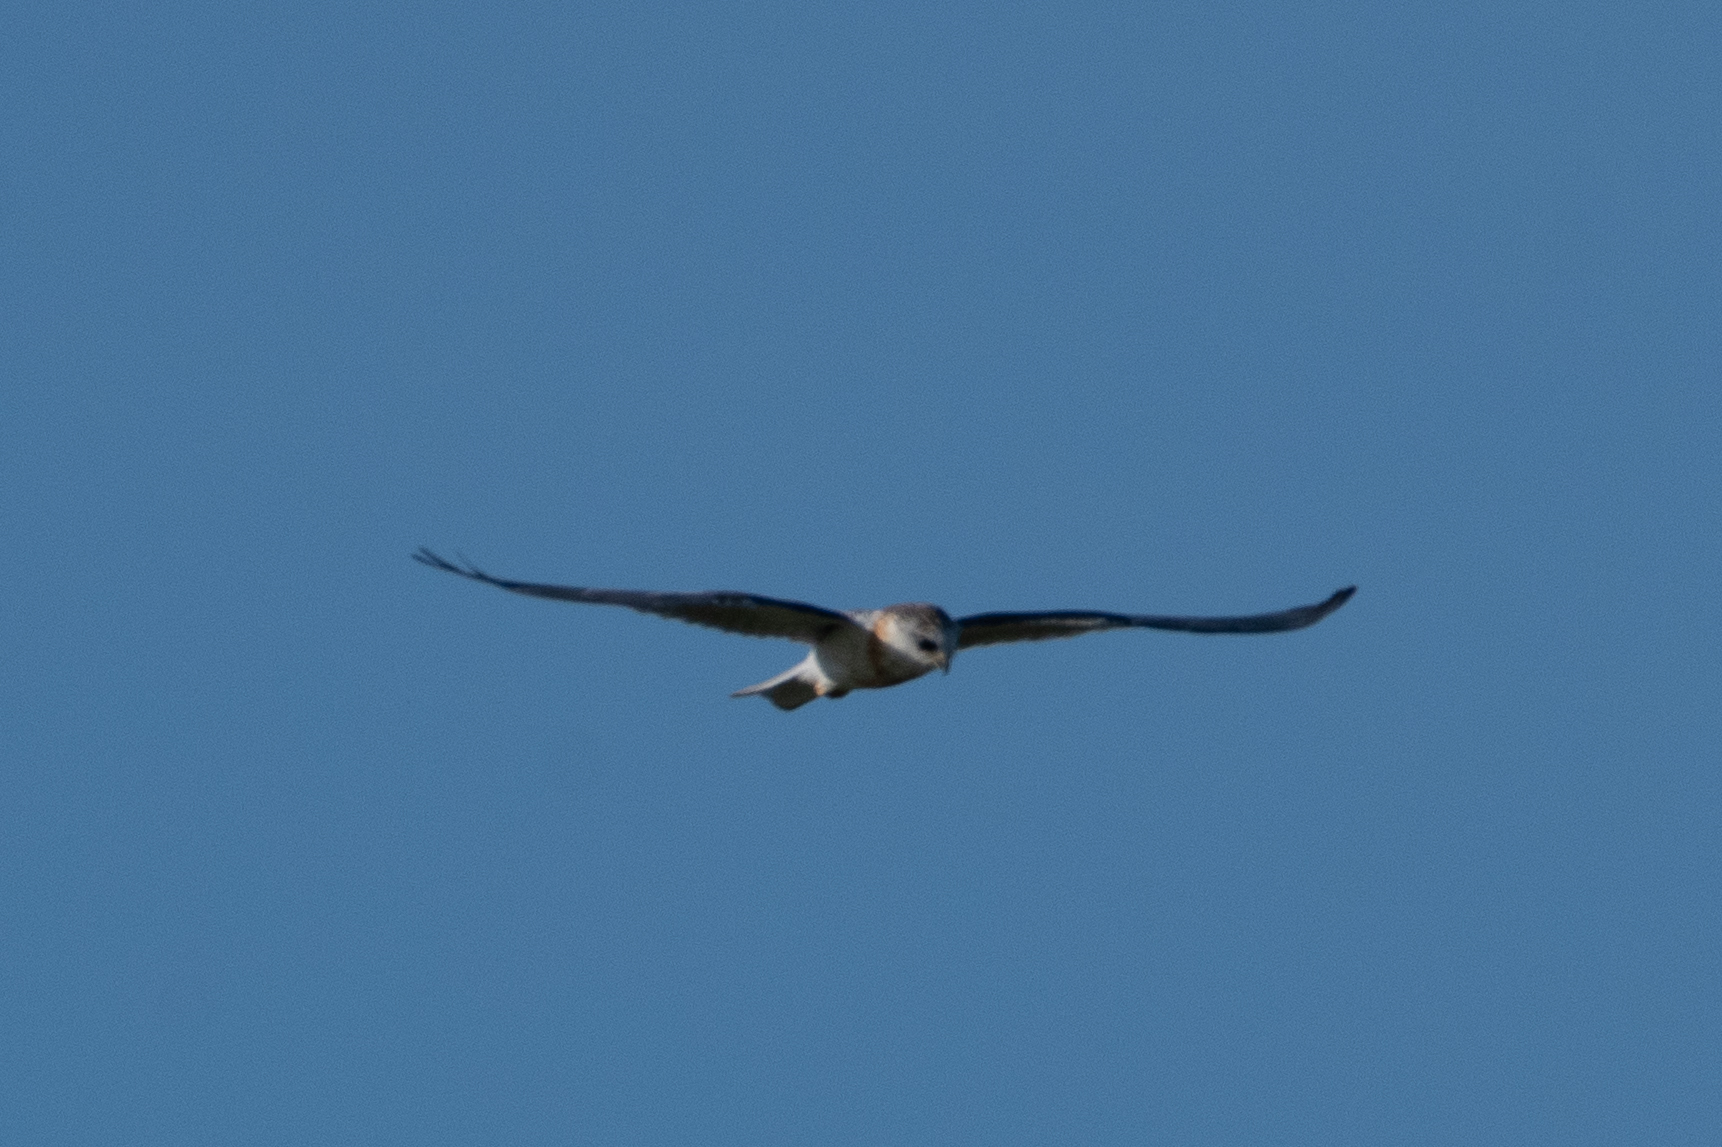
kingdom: Animalia
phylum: Chordata
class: Aves
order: Accipitriformes
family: Accipitridae
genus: Elanus
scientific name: Elanus leucurus
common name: White-tailed kite
